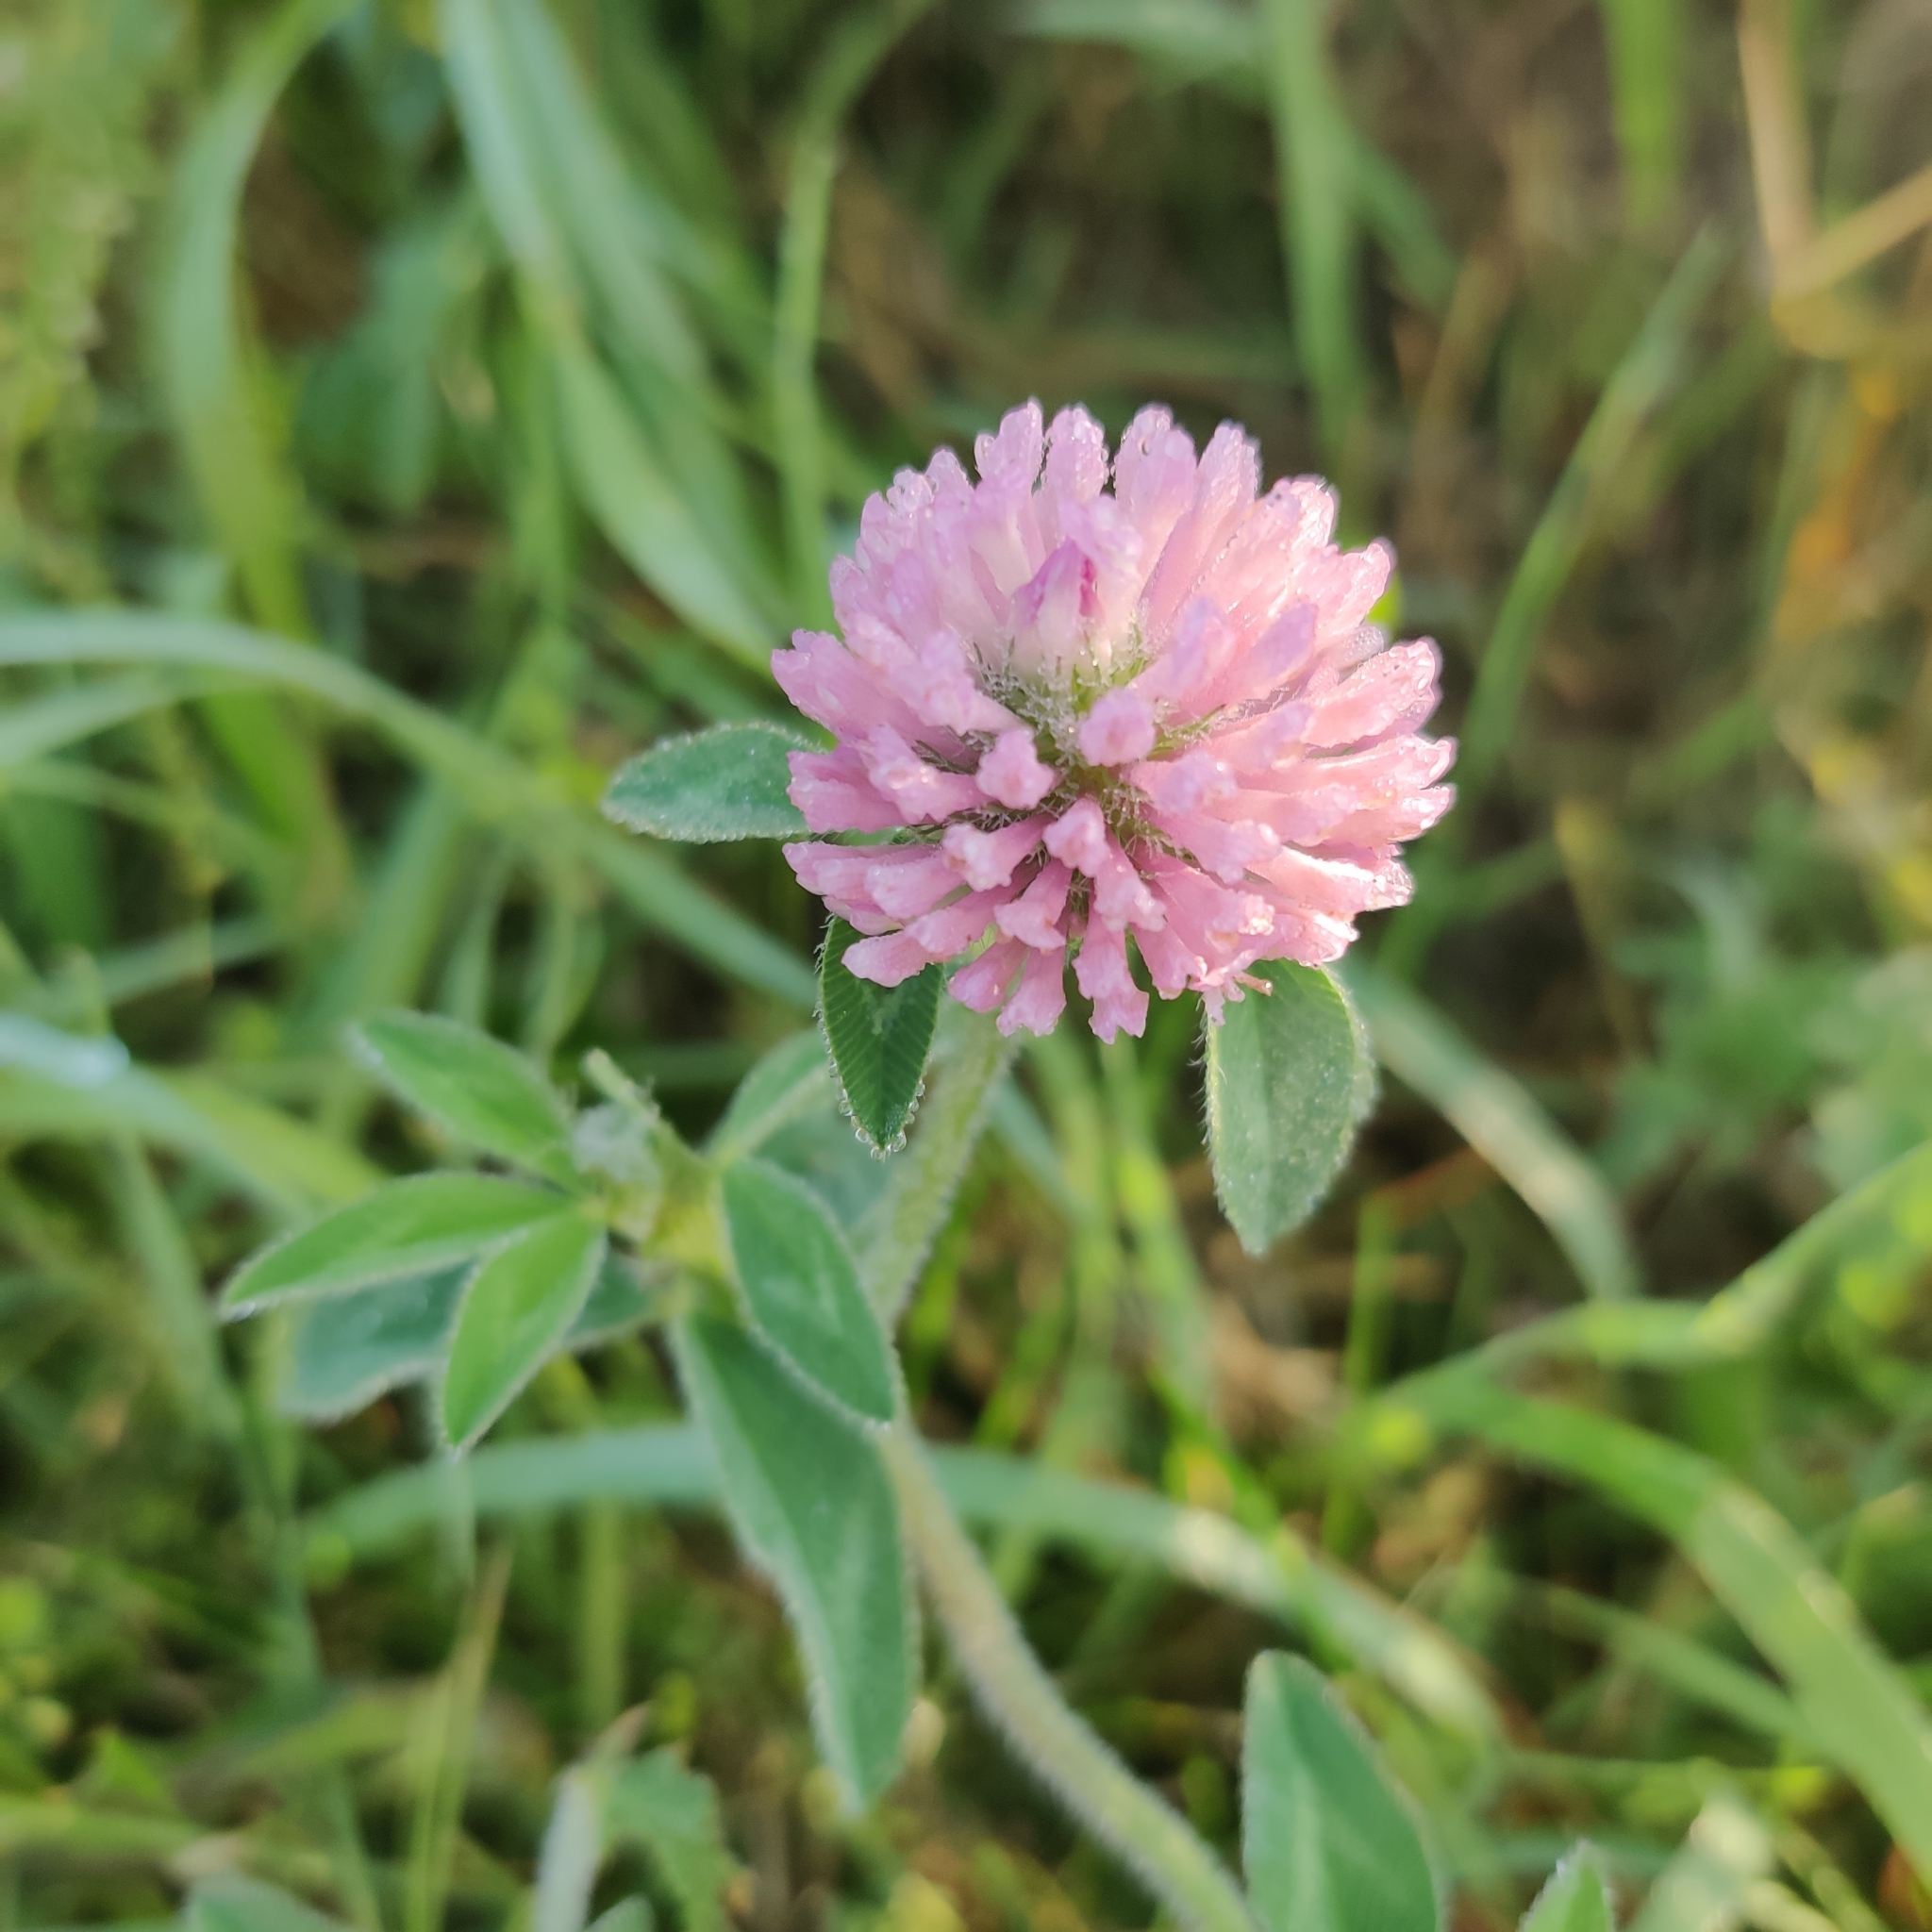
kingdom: Plantae
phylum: Tracheophyta
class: Magnoliopsida
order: Fabales
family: Fabaceae
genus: Trifolium
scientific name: Trifolium pratense
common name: Red clover
